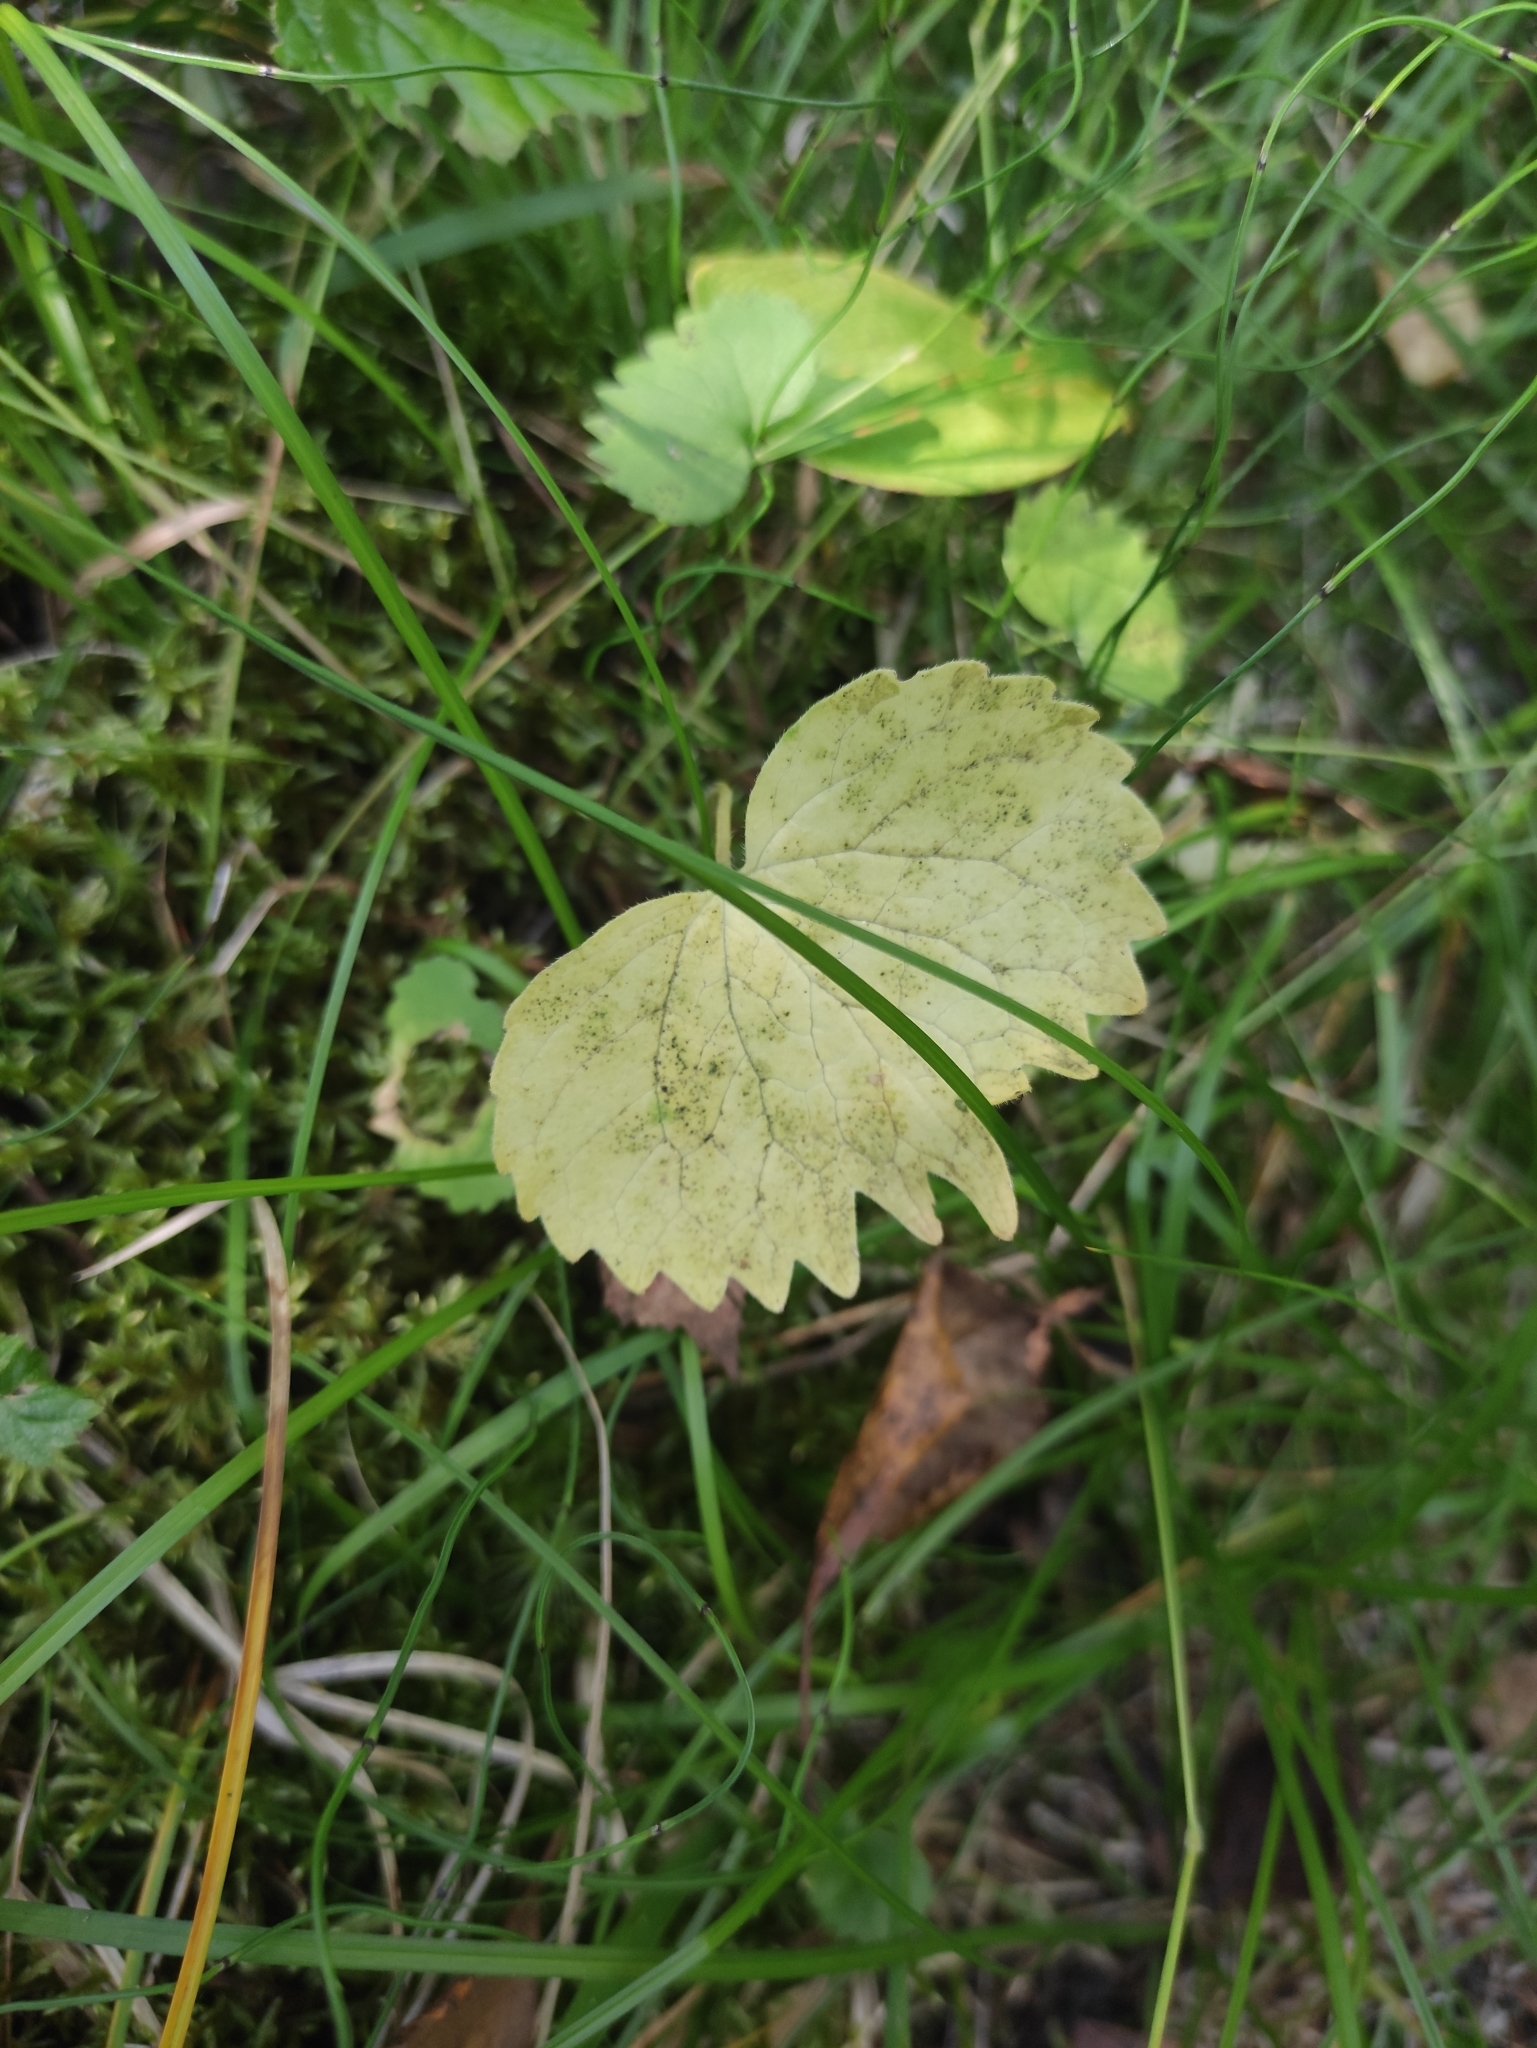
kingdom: Plantae
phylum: Tracheophyta
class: Magnoliopsida
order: Malpighiales
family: Violaceae
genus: Viola
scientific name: Viola uniflora
